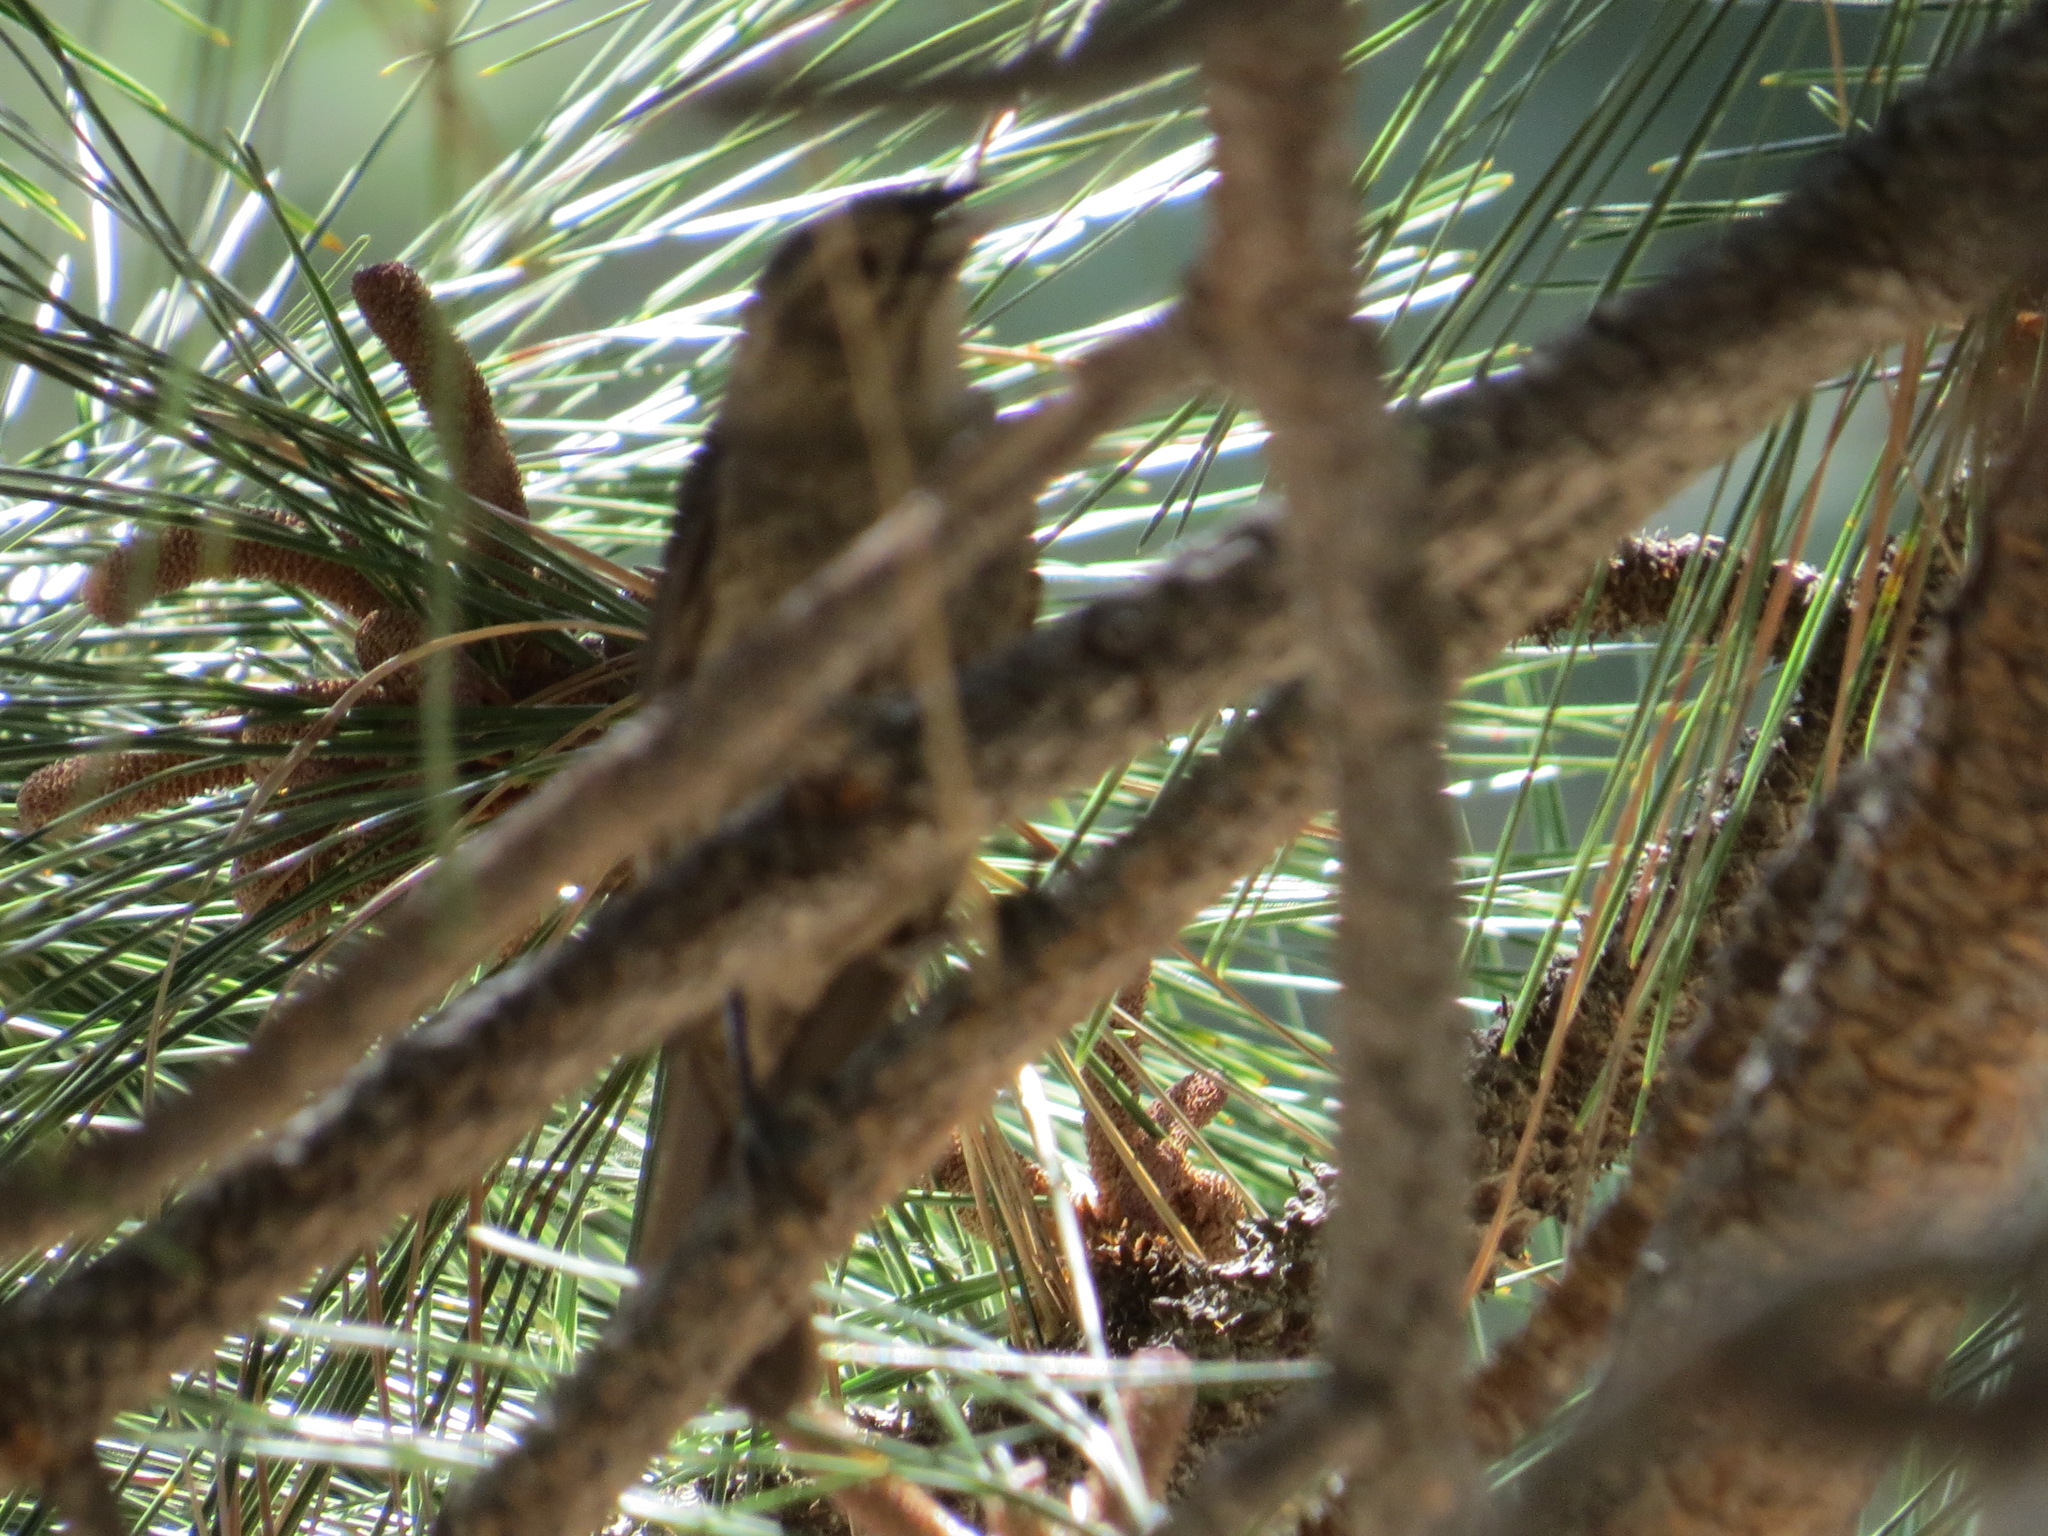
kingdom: Animalia
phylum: Chordata
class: Aves
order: Passeriformes
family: Icteridae
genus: Molothrus
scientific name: Molothrus ater
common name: Brown-headed cowbird
